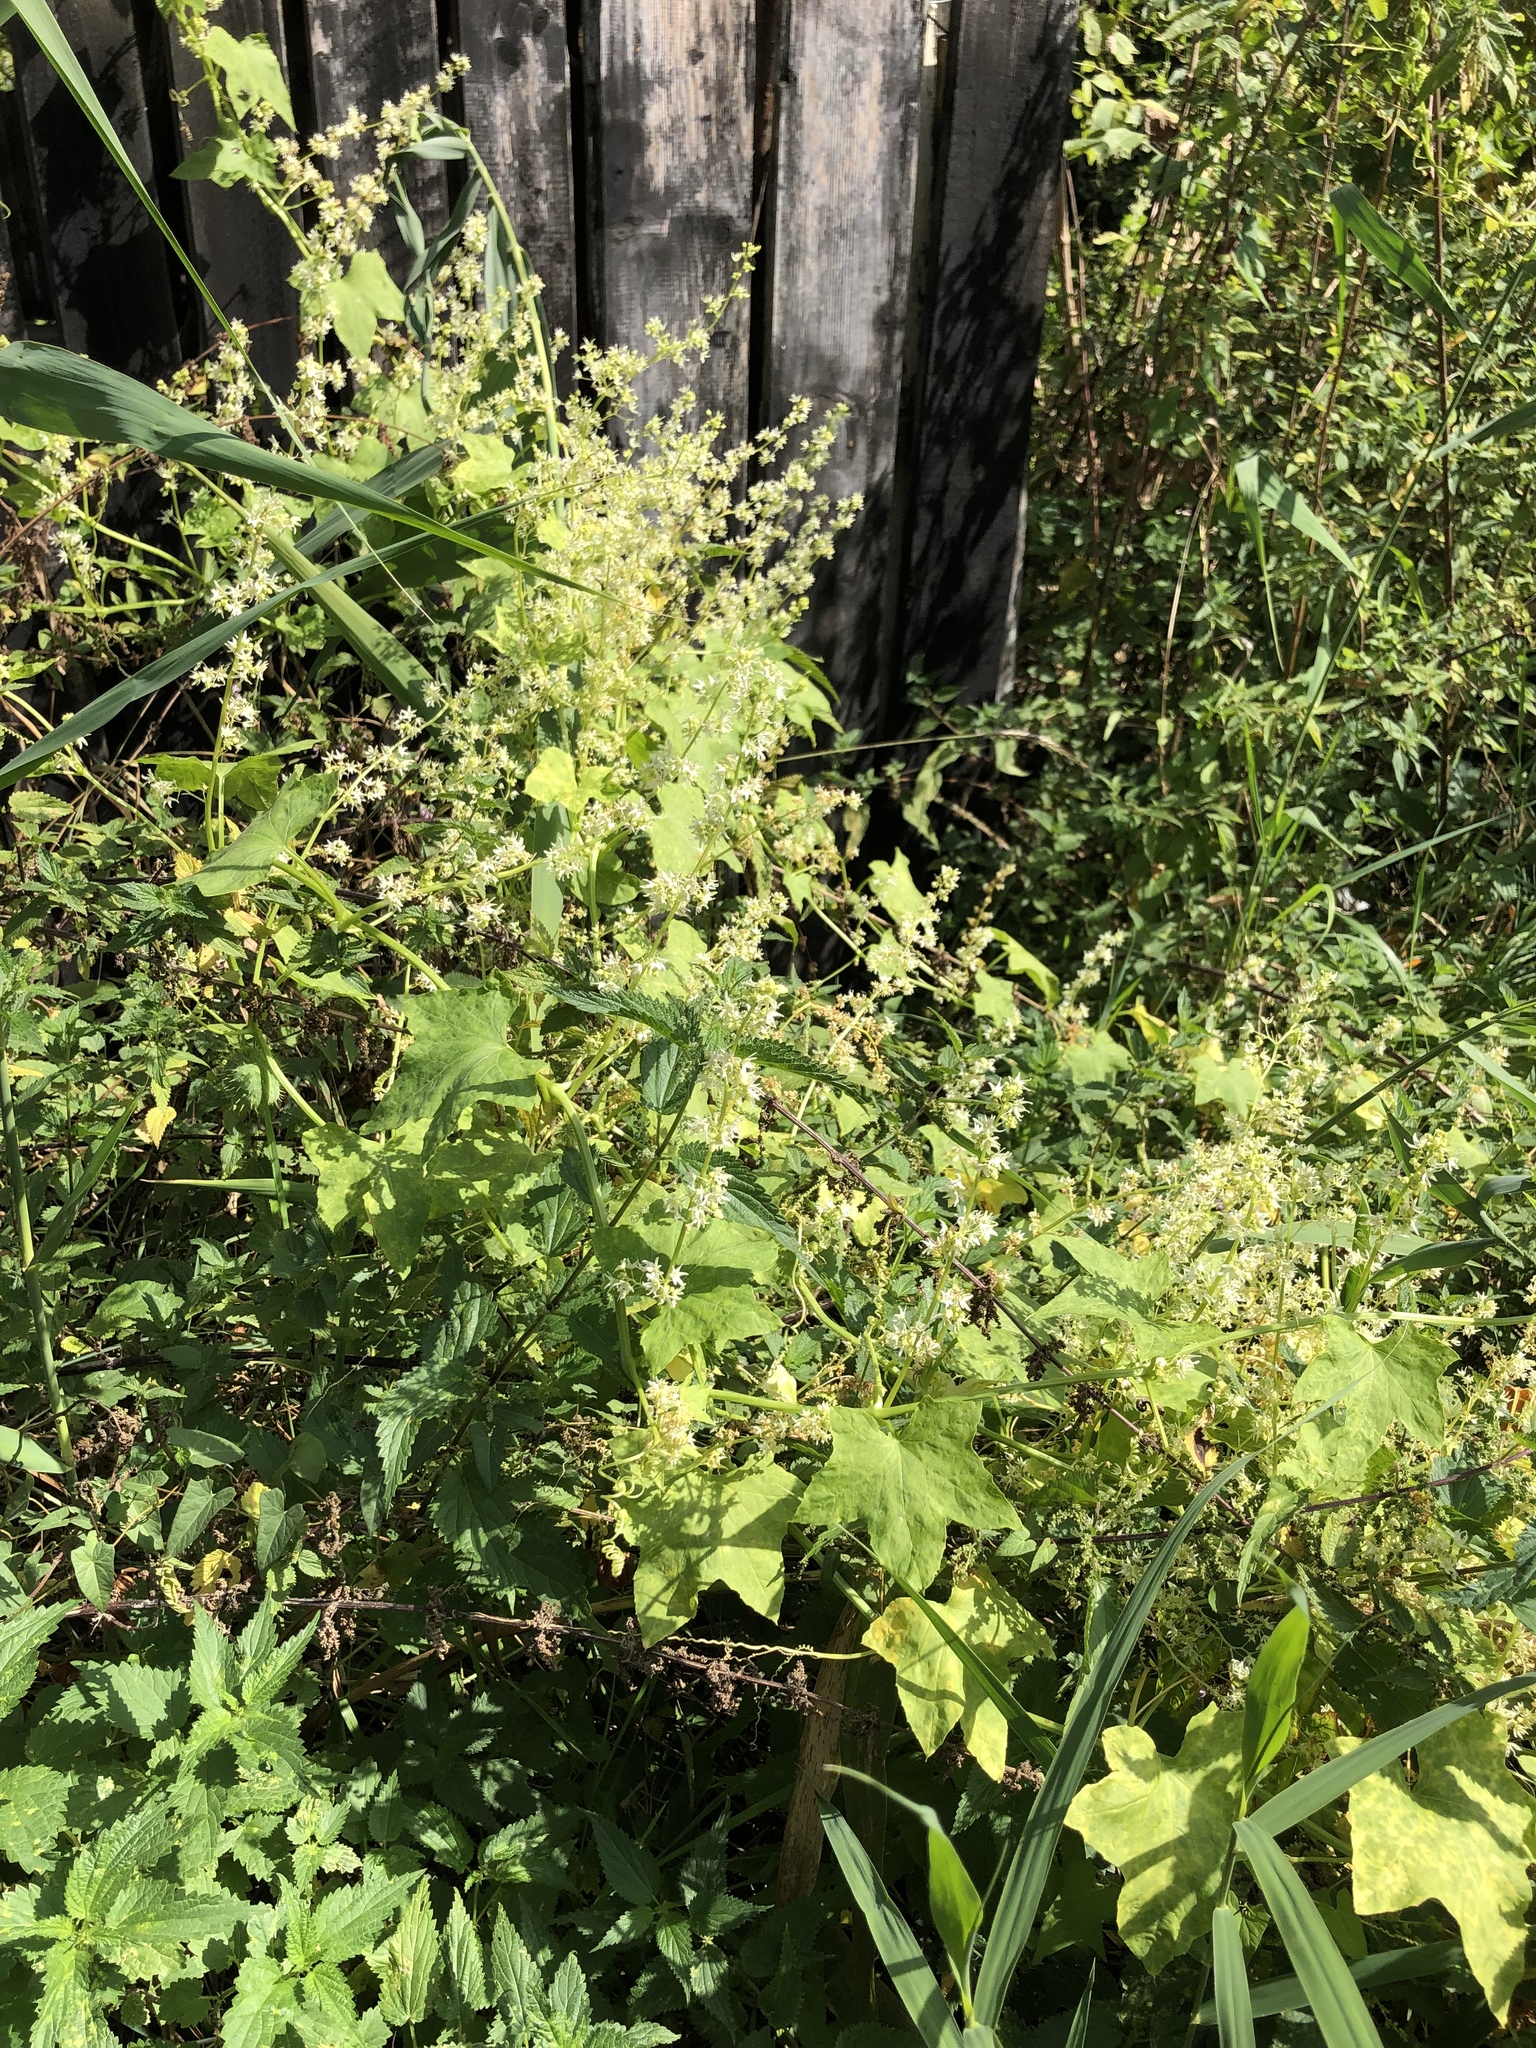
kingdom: Plantae
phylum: Tracheophyta
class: Magnoliopsida
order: Cucurbitales
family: Cucurbitaceae
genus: Echinocystis
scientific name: Echinocystis lobata
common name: Wild cucumber
